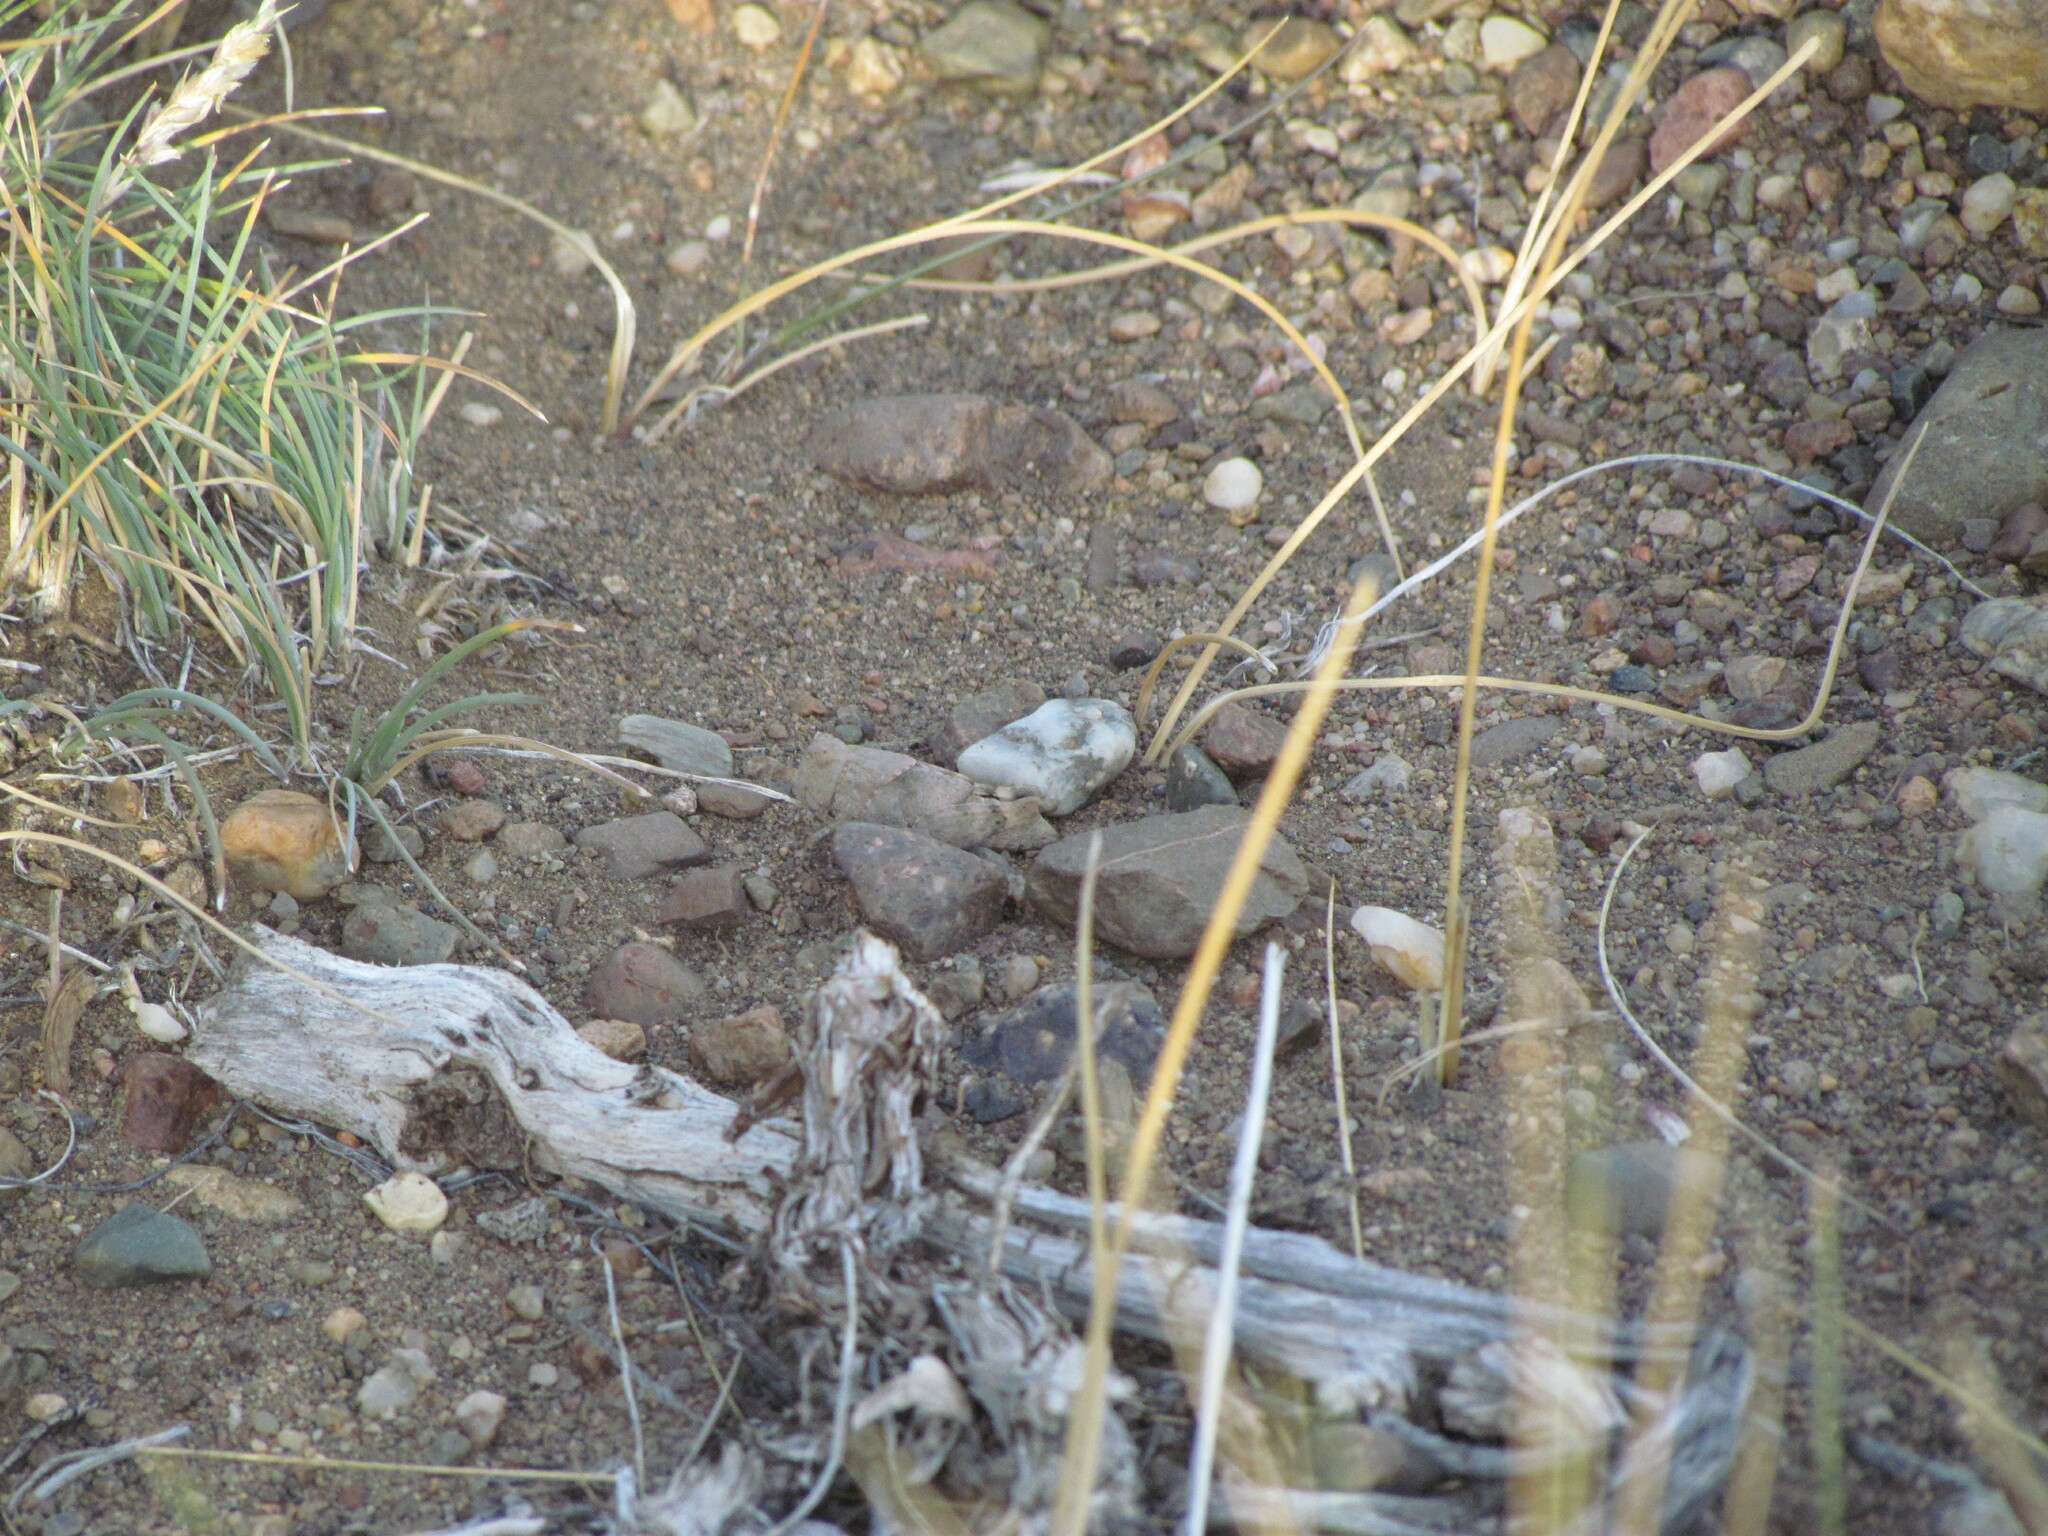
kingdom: Animalia
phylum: Arthropoda
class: Insecta
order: Orthoptera
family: Acrididae
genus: Trimerotropis
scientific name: Trimerotropis pallidipennis
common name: Pallid-winged grasshopper
